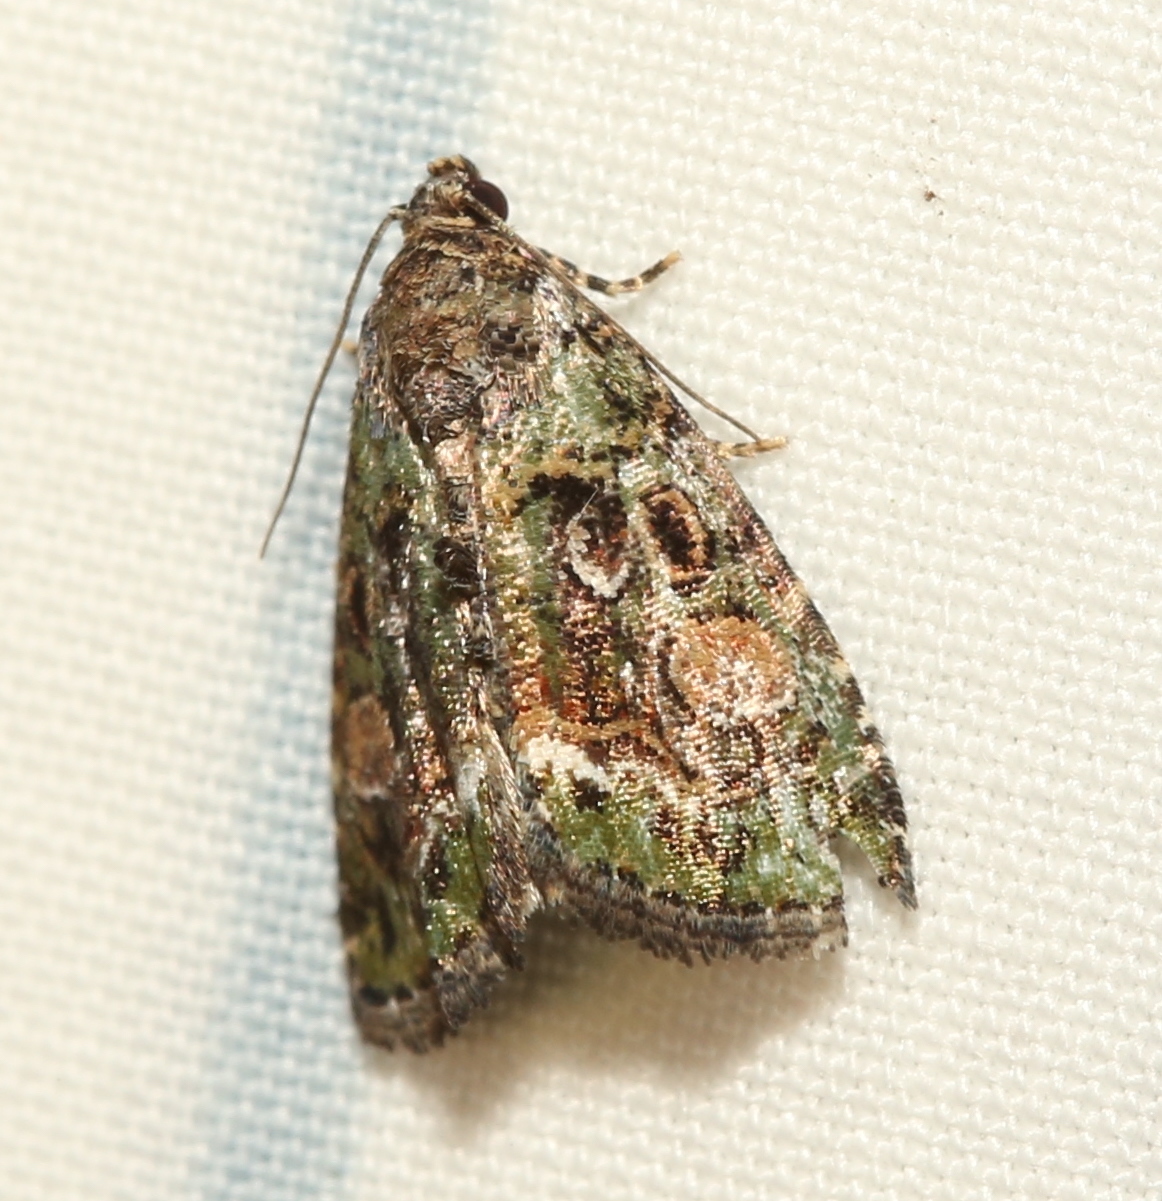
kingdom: Animalia
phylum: Arthropoda
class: Insecta
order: Lepidoptera
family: Noctuidae
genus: Lithacodia
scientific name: Lithacodia musta
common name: Small mossy glyph
